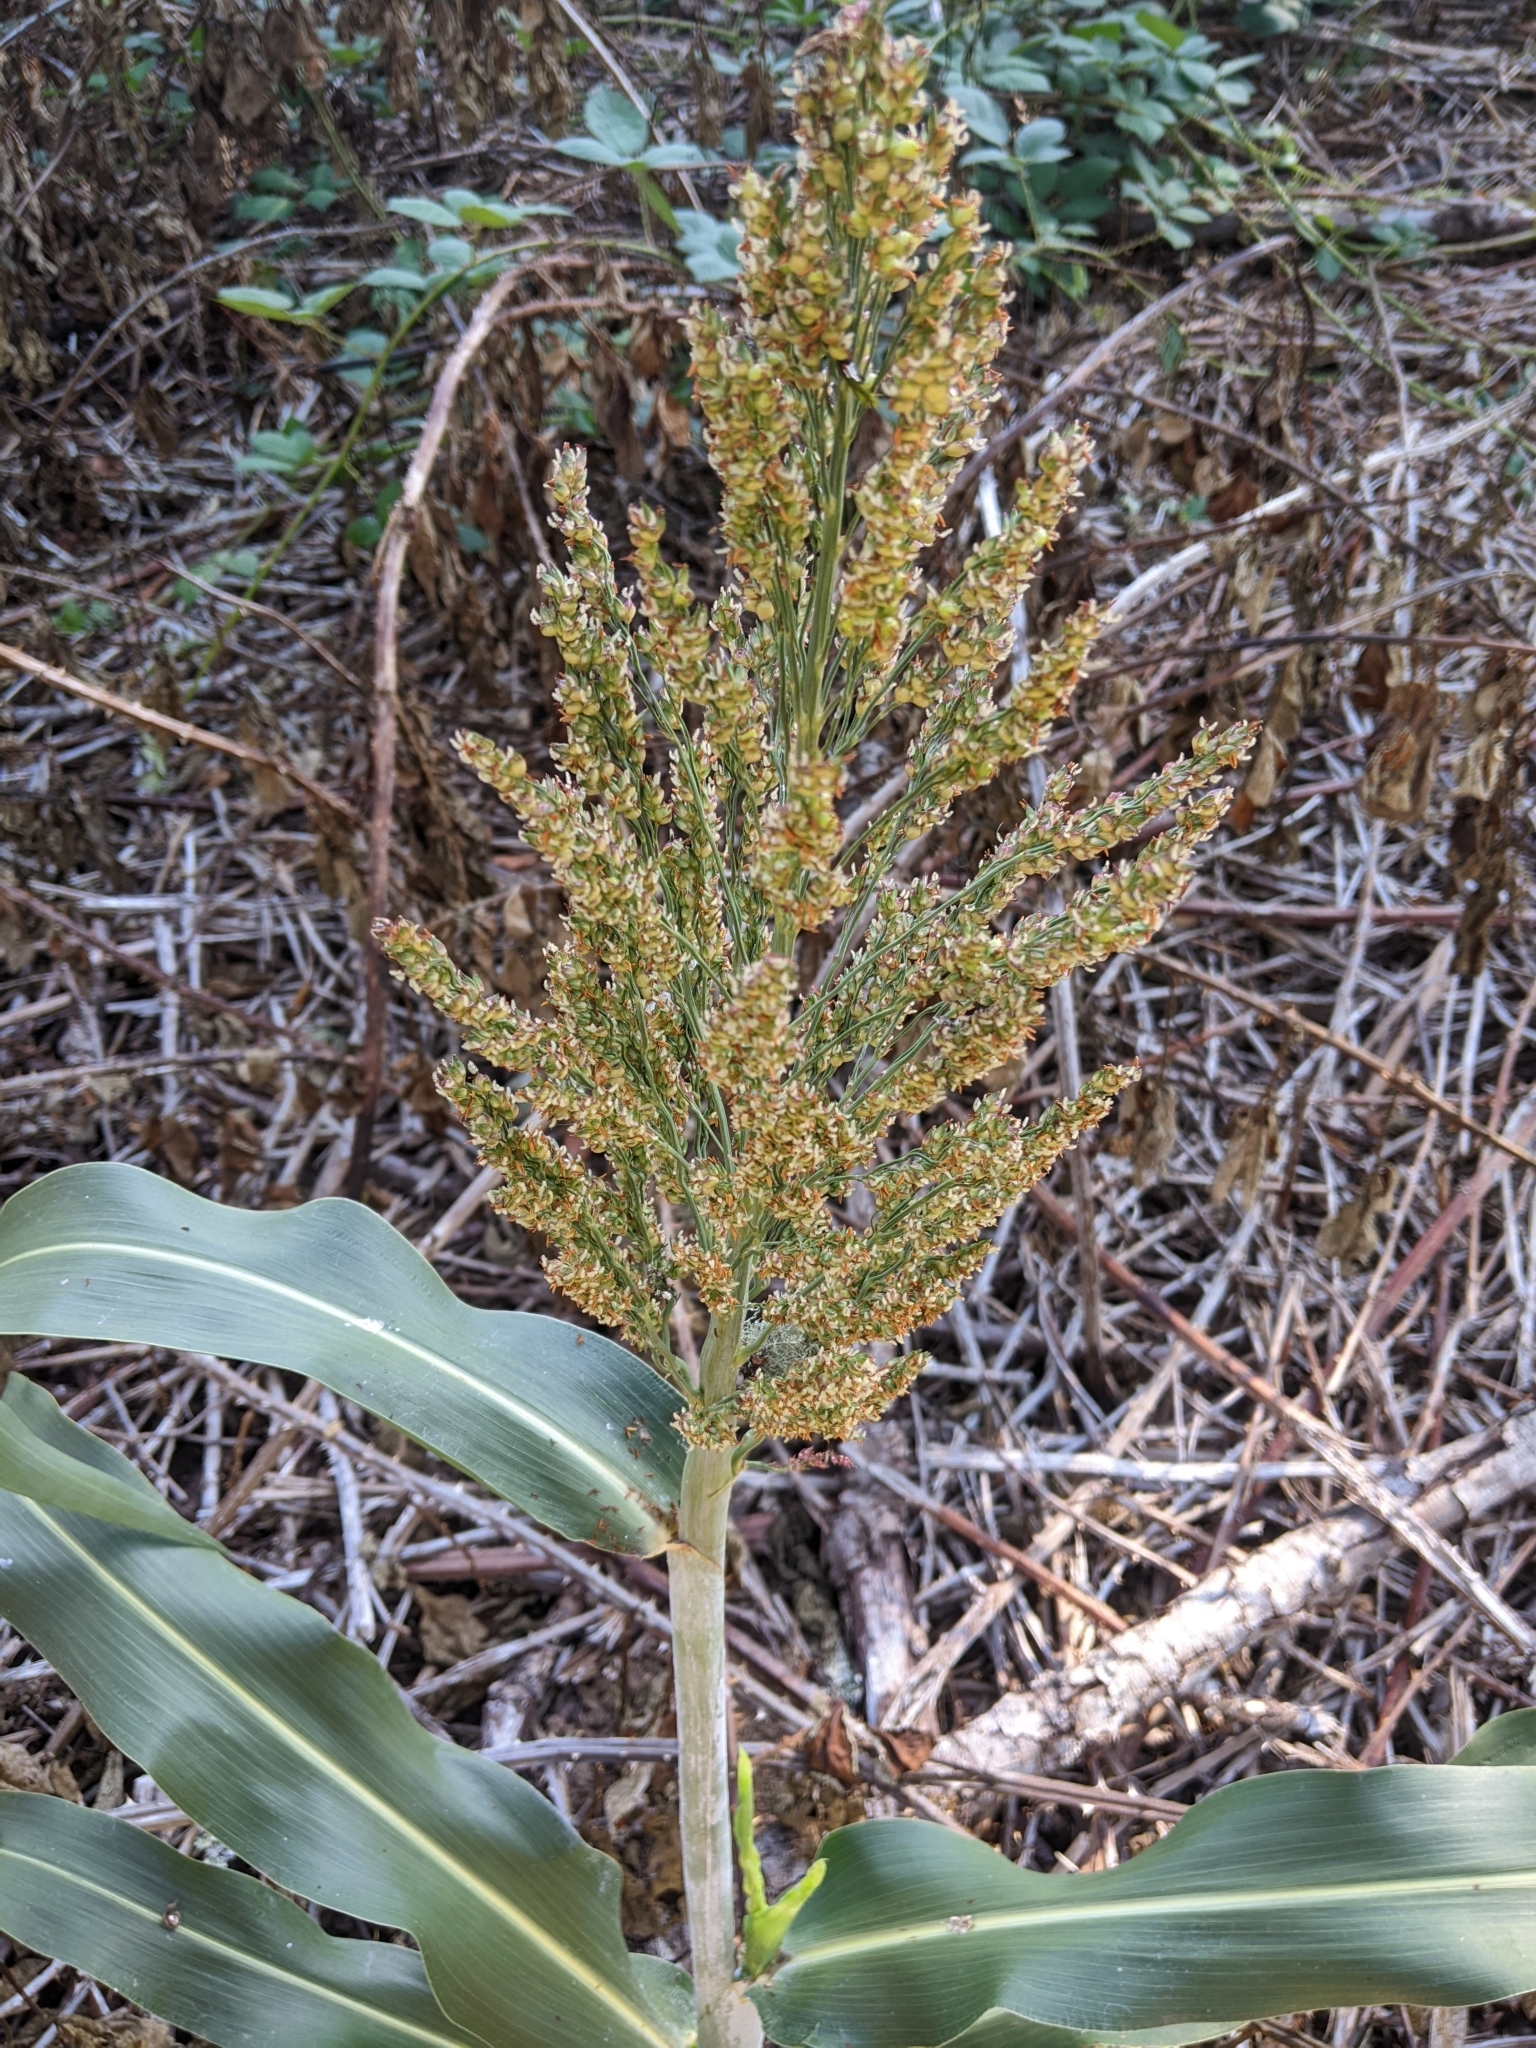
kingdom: Plantae
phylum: Tracheophyta
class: Liliopsida
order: Poales
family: Poaceae
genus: Sorghum
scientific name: Sorghum bicolor
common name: Sorghum
